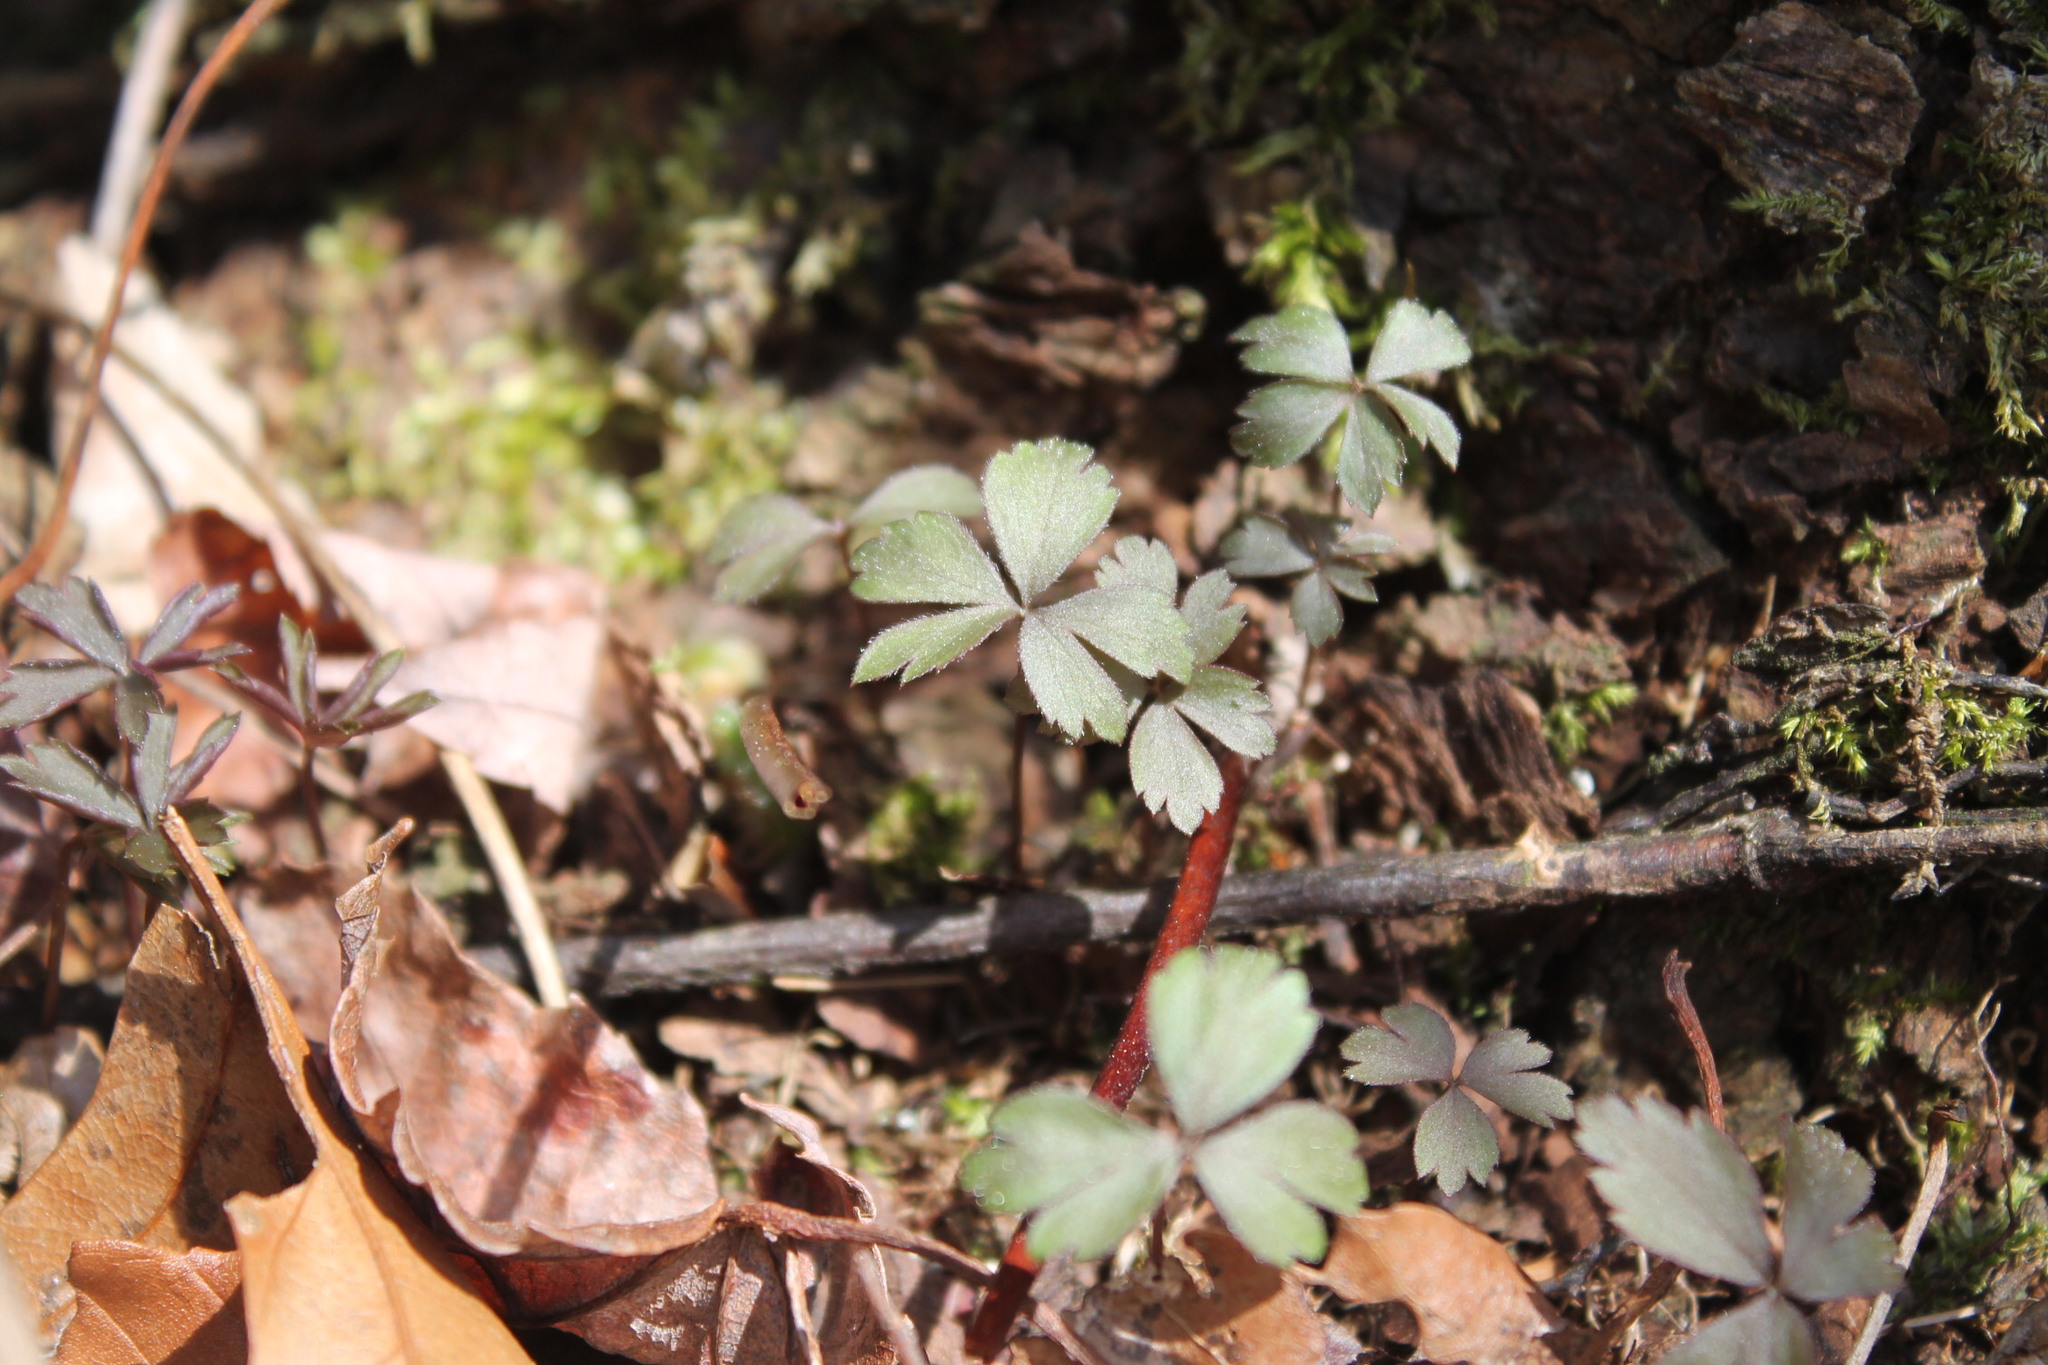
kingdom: Plantae
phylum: Tracheophyta
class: Magnoliopsida
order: Ranunculales
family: Ranunculaceae
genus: Anemone
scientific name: Anemone quinquefolia
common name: Wood anemone
